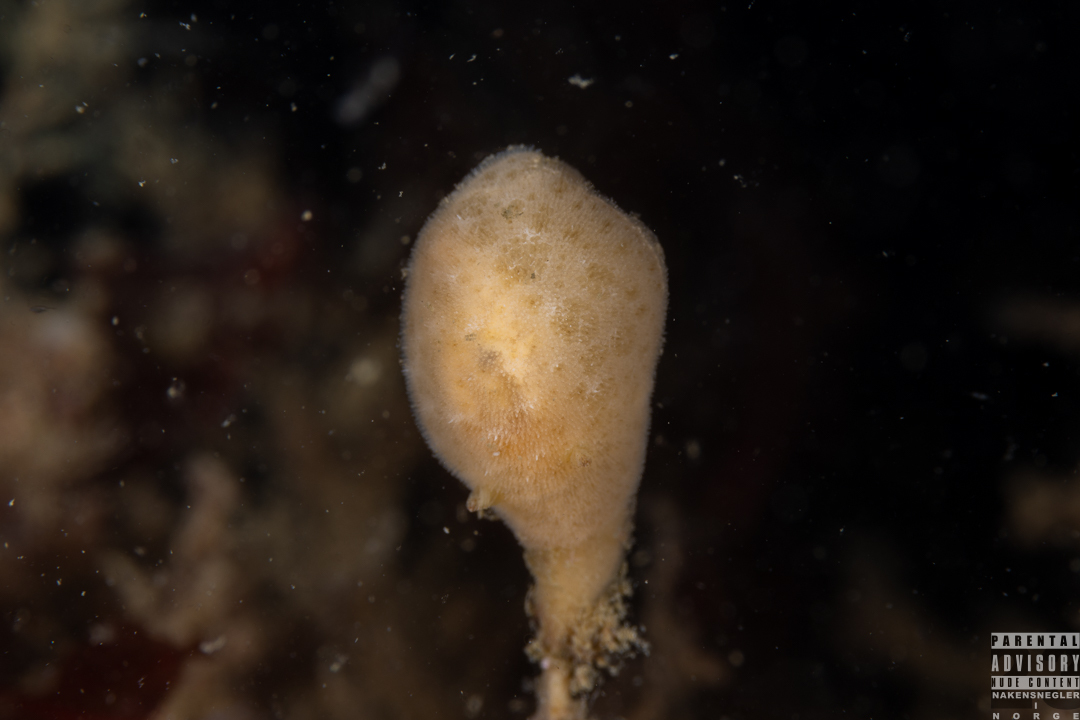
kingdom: Animalia
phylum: Mollusca
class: Gastropoda
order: Nudibranchia
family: Discodorididae
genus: Jorunna
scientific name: Jorunna tomentosa
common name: Grey sea slug
